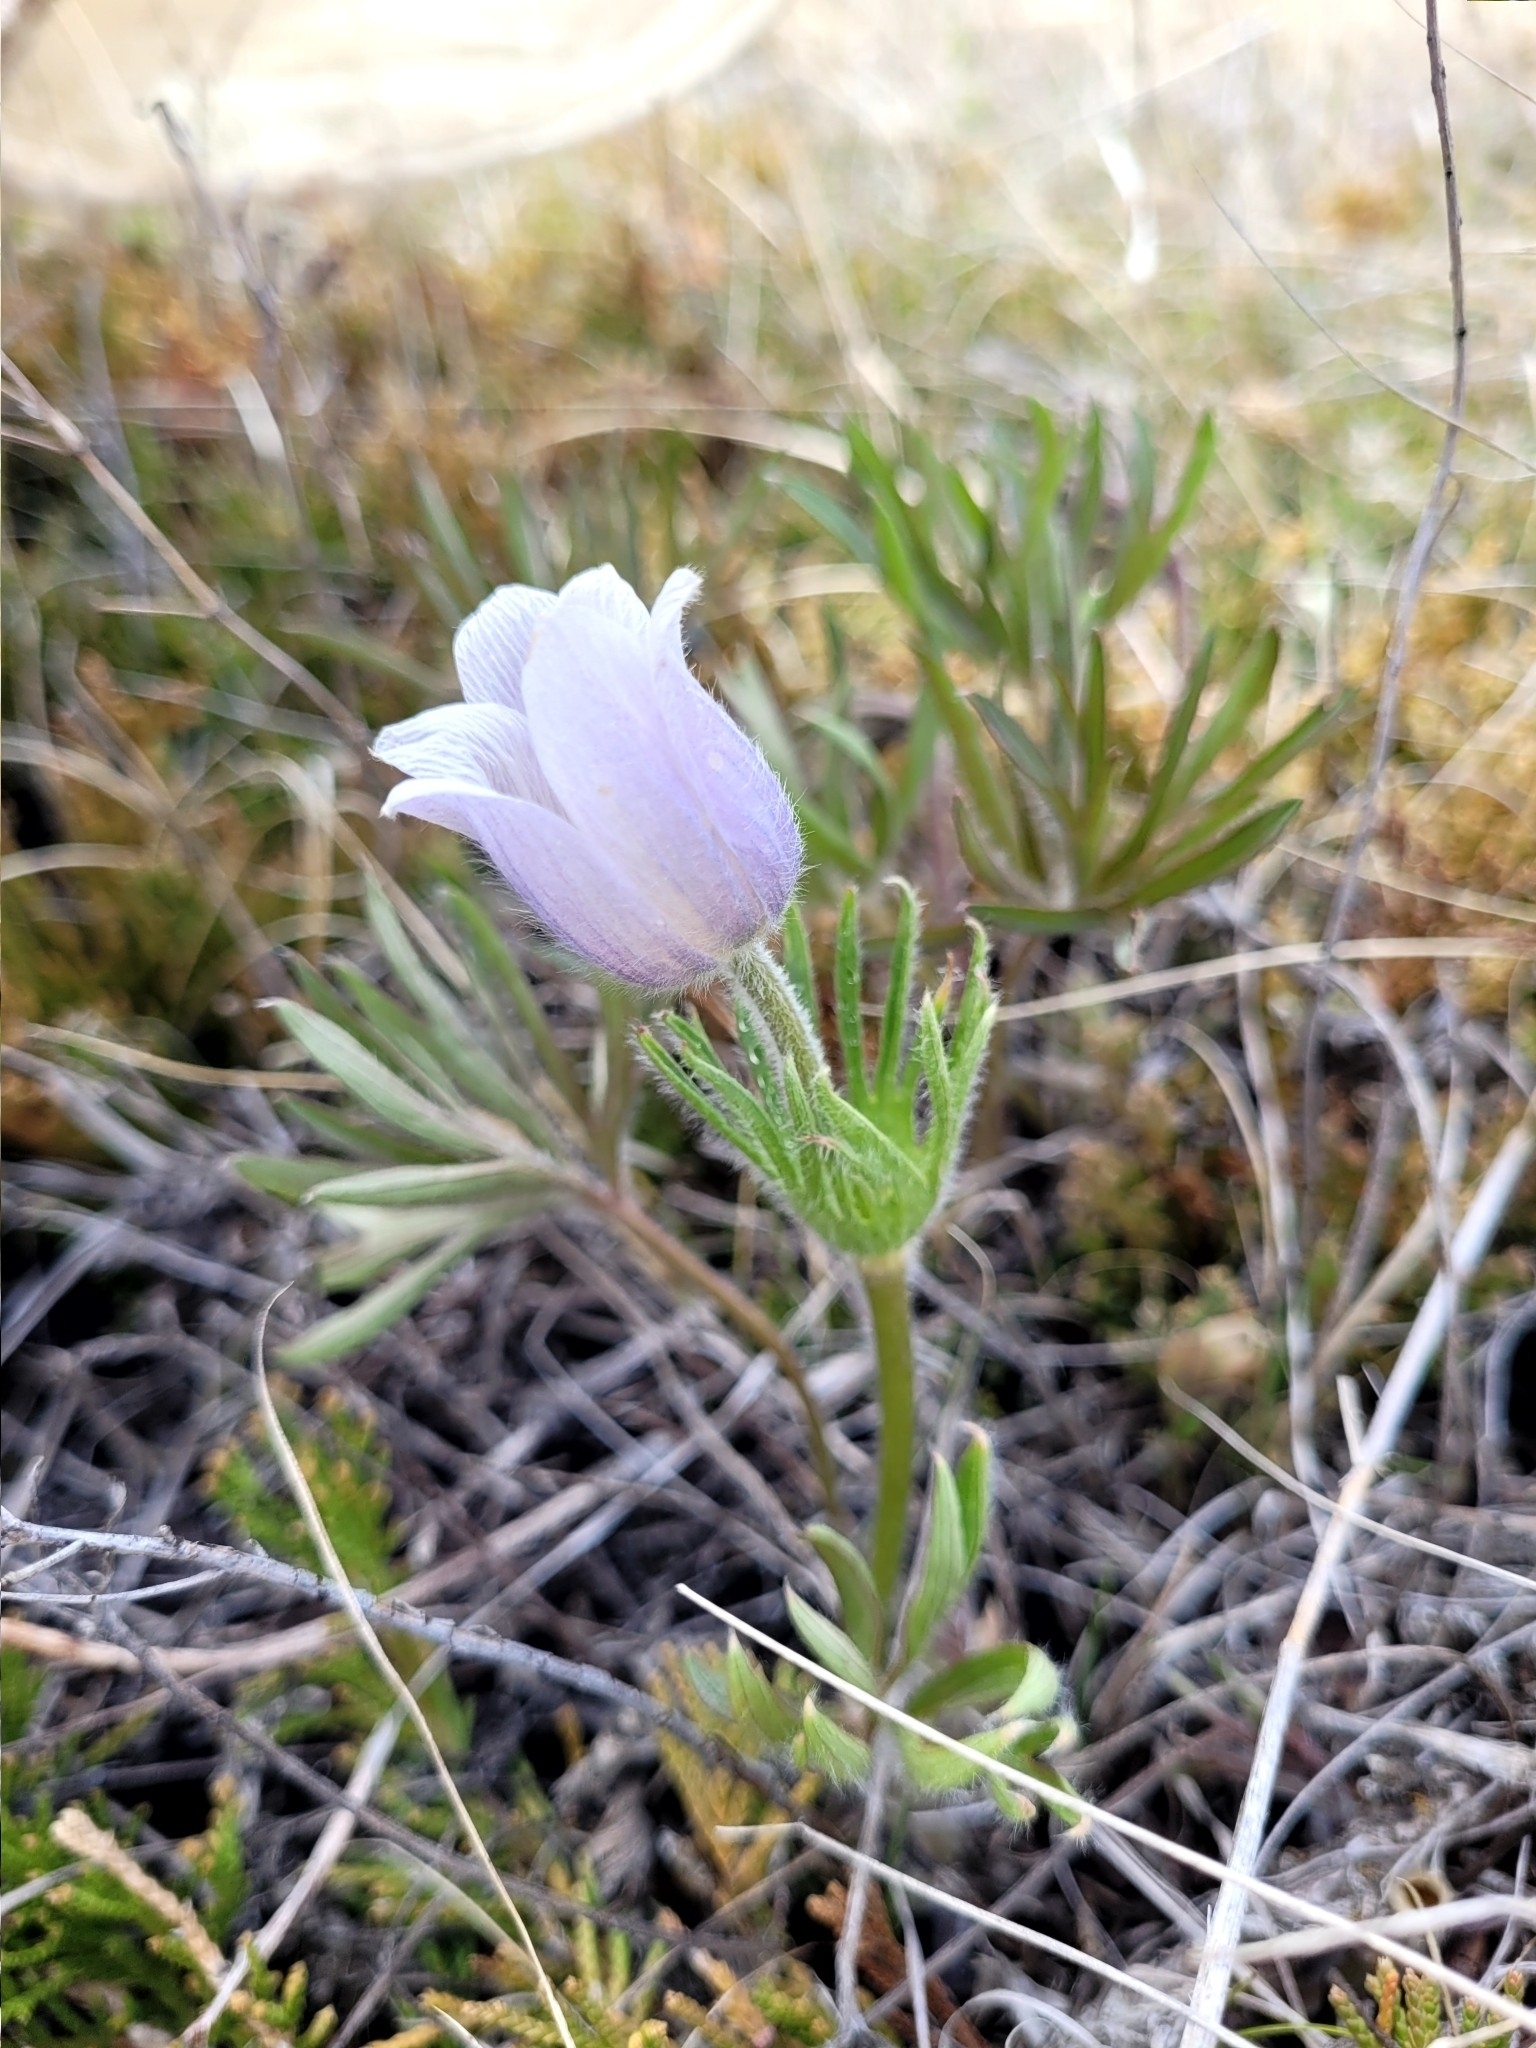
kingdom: Plantae
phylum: Tracheophyta
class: Magnoliopsida
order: Ranunculales
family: Ranunculaceae
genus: Pulsatilla
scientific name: Pulsatilla nuttalliana
